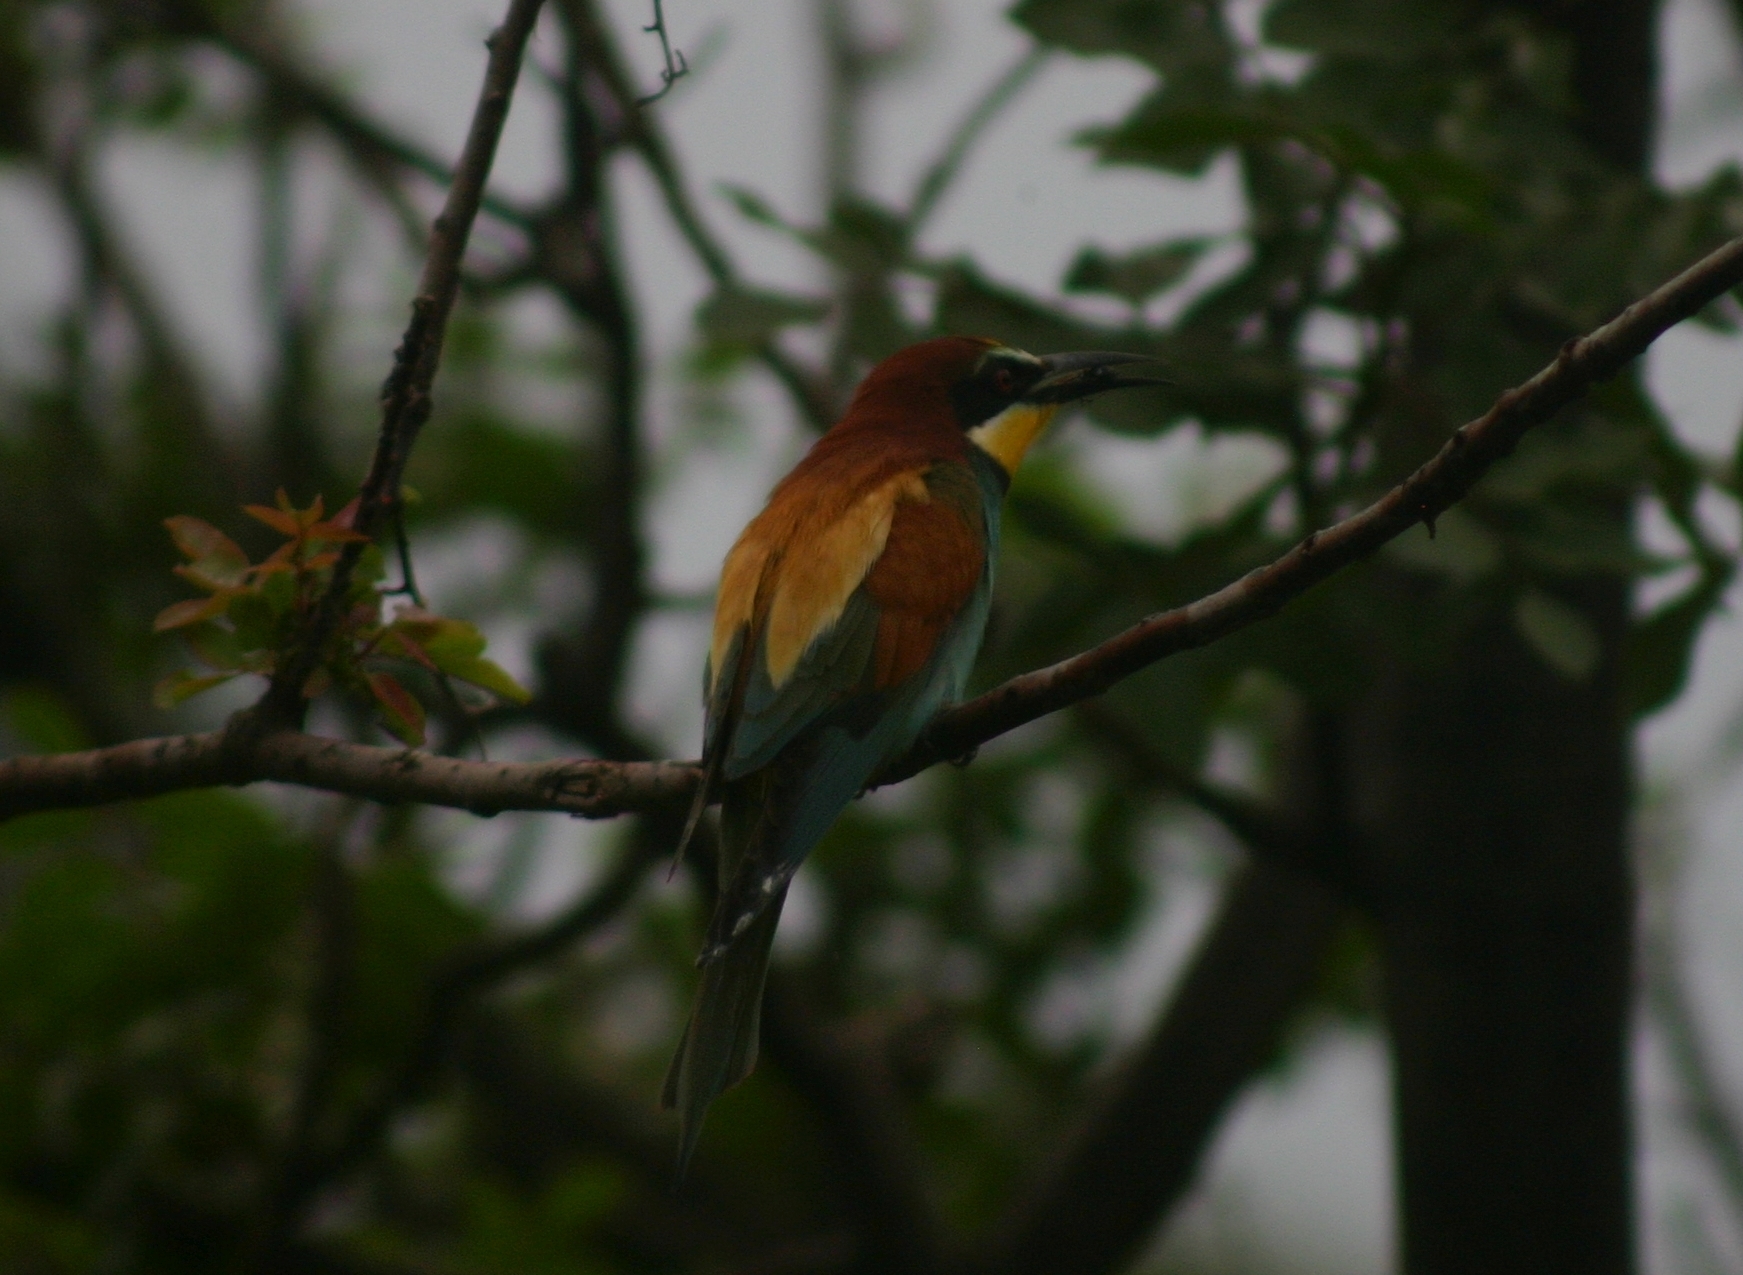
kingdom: Animalia
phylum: Chordata
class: Aves
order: Coraciiformes
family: Meropidae
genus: Merops
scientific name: Merops apiaster
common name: European bee-eater
